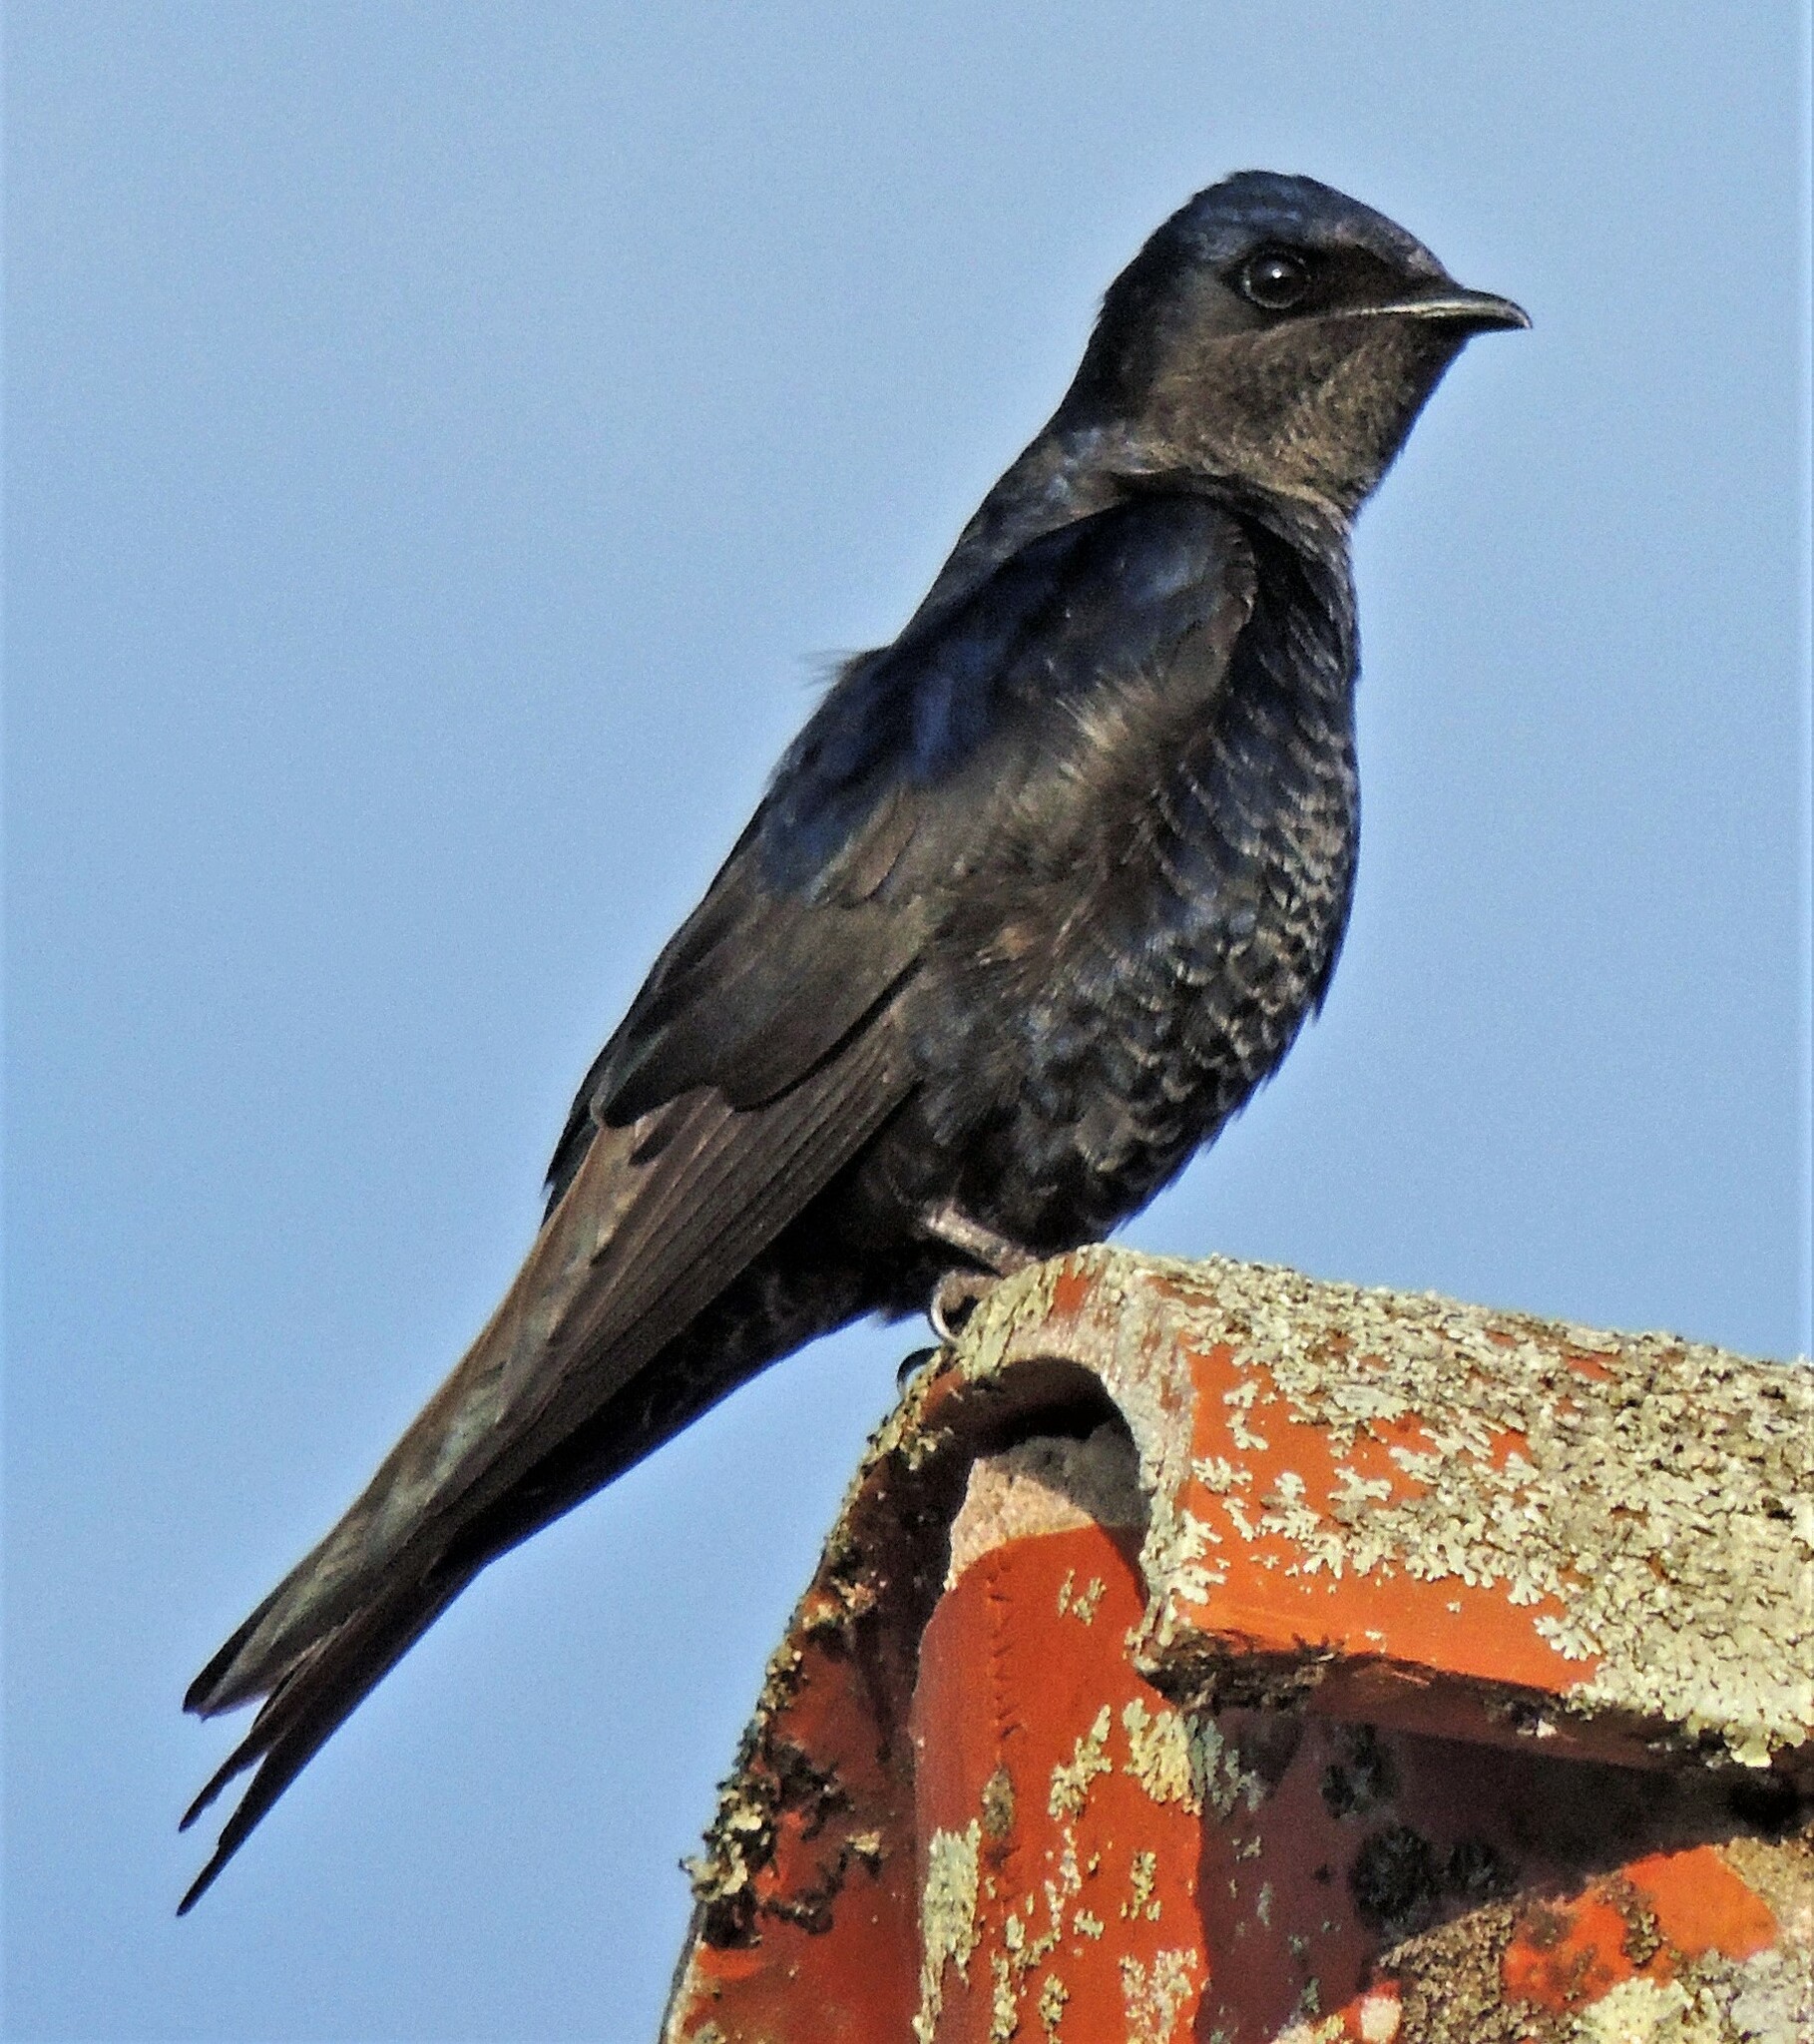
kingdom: Animalia
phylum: Chordata
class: Aves
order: Passeriformes
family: Hirundinidae
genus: Progne
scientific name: Progne elegans
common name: Southern martin
